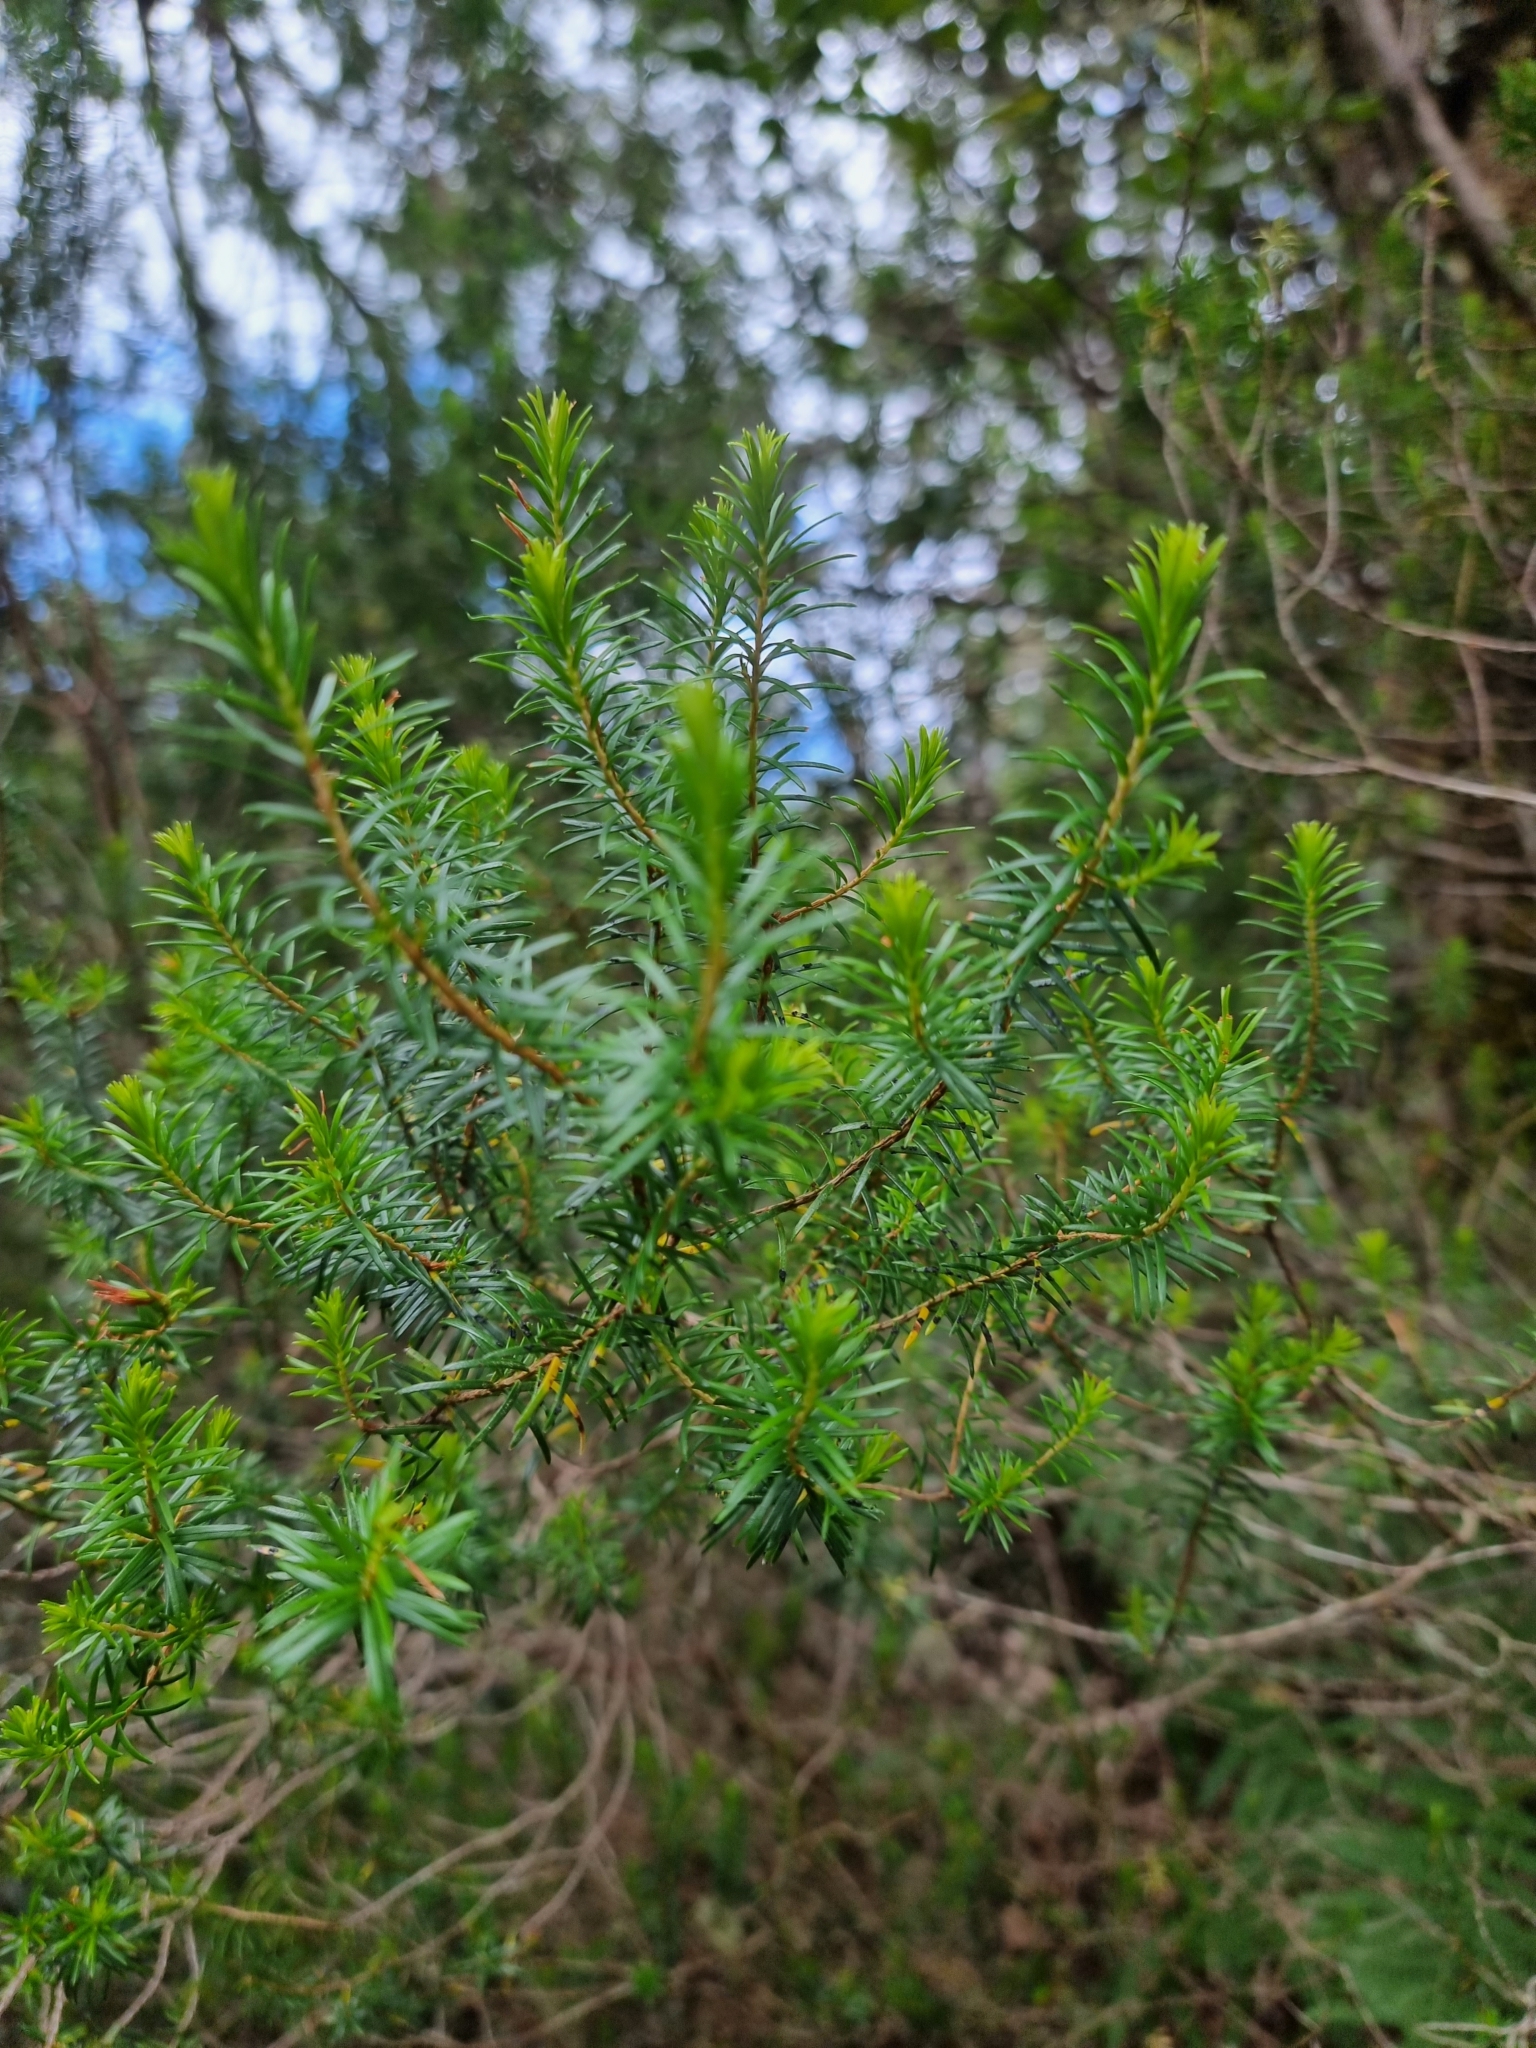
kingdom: Plantae
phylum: Tracheophyta
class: Magnoliopsida
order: Ericales
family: Ericaceae
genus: Erica
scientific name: Erica platycodon
